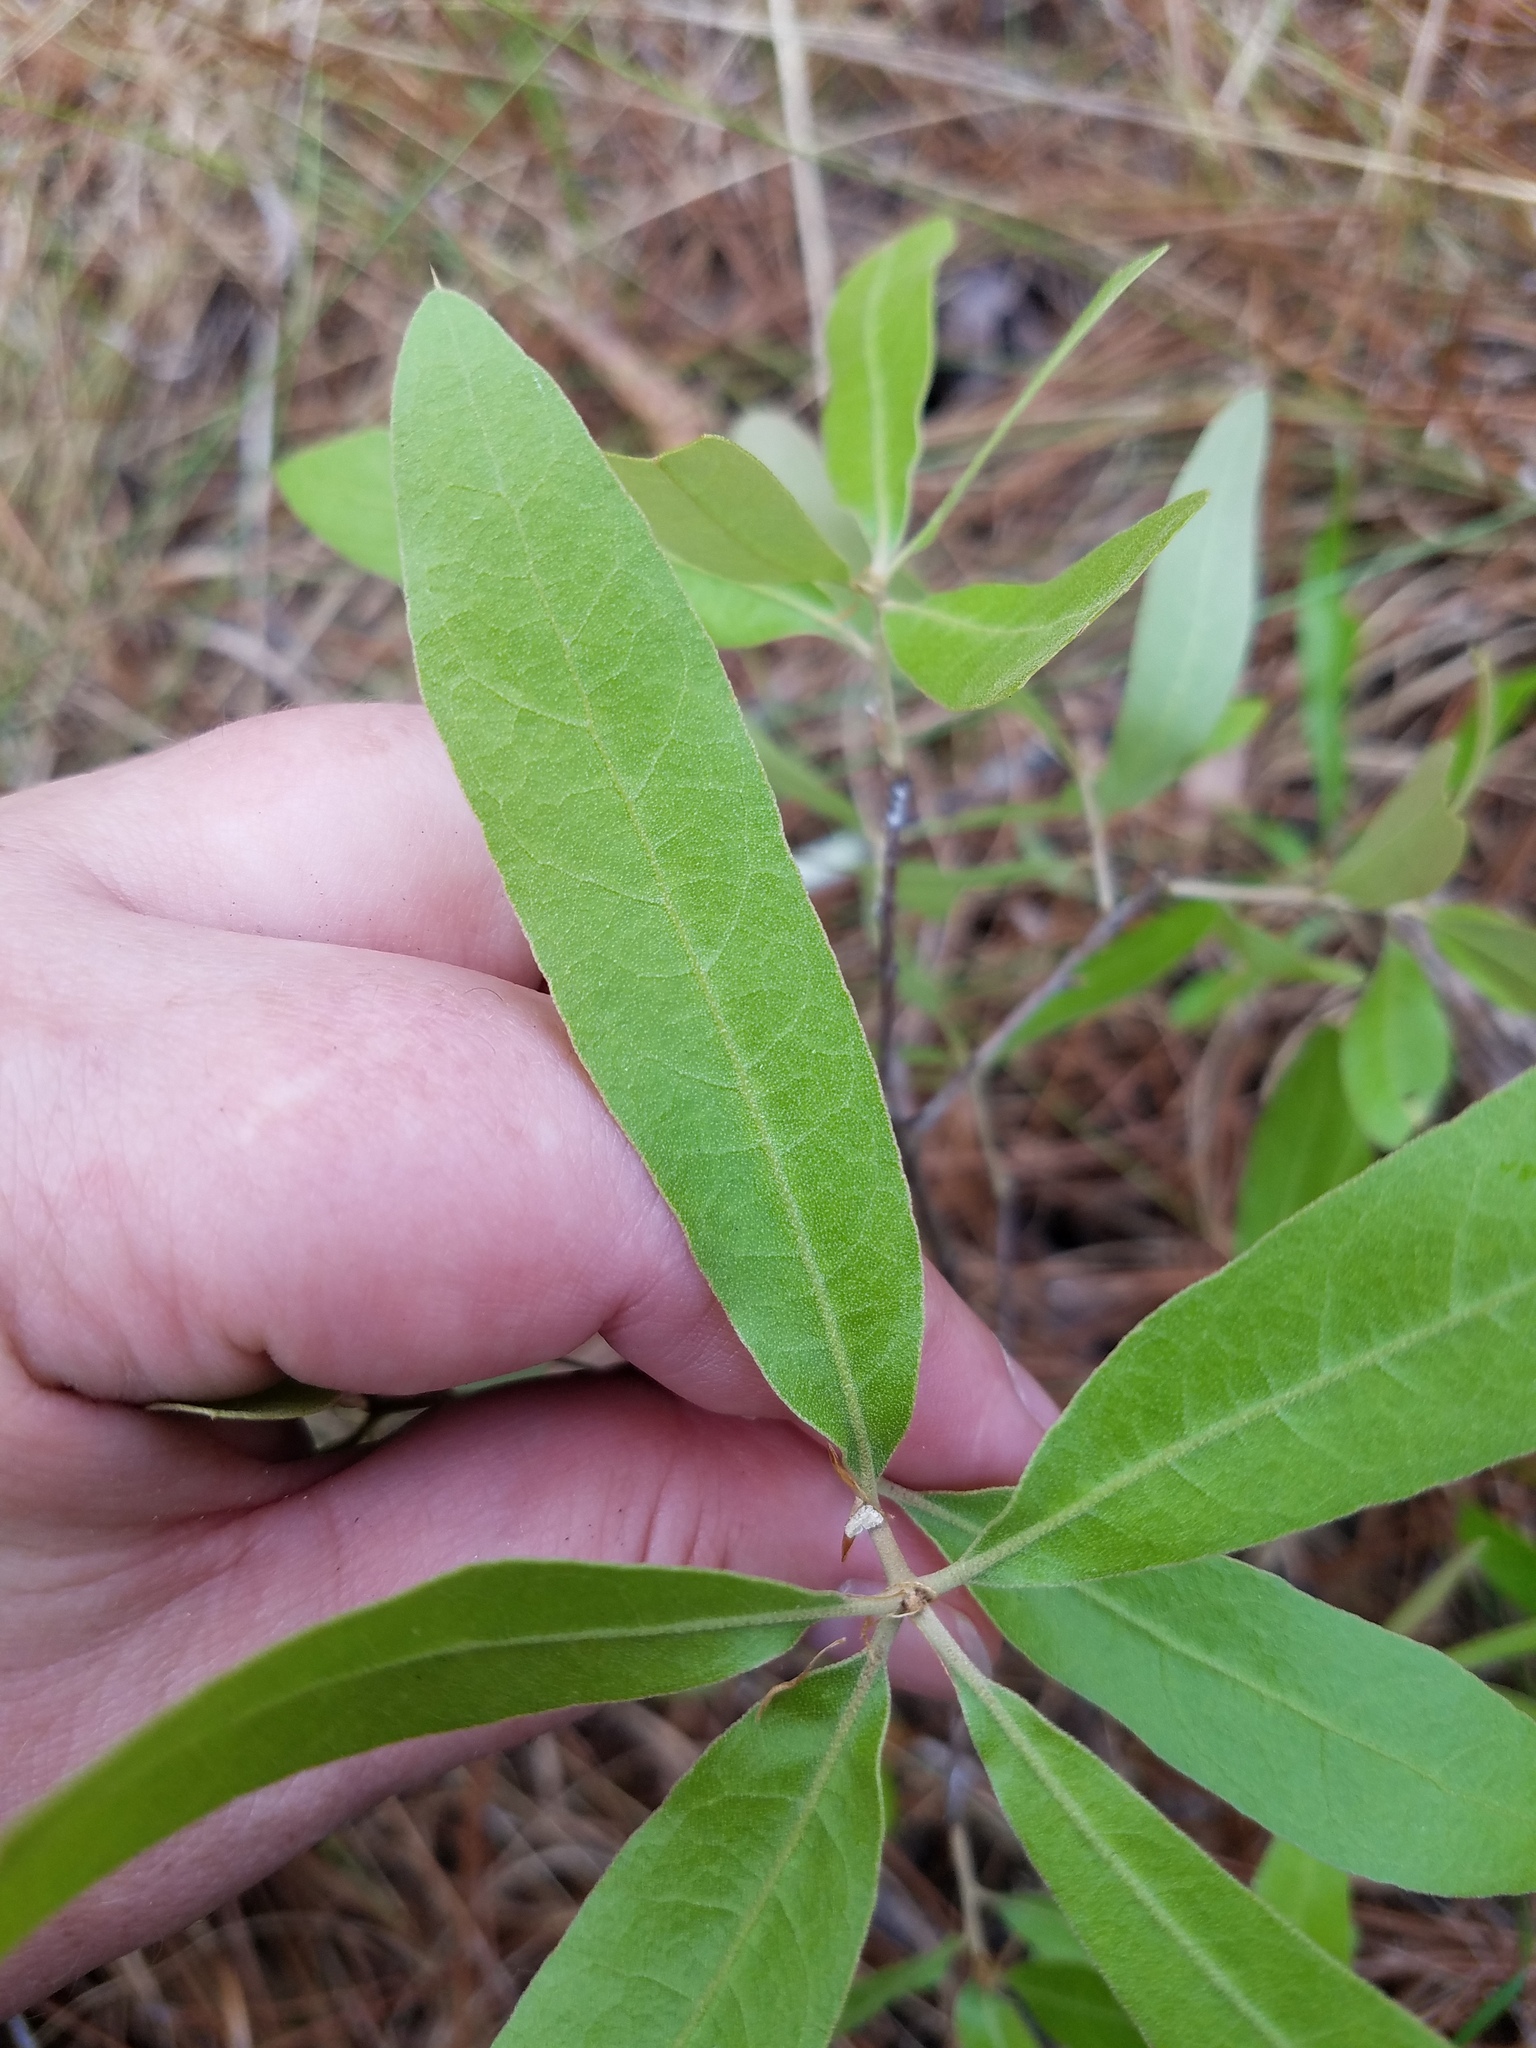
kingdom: Plantae
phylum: Tracheophyta
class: Magnoliopsida
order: Fagales
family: Fagaceae
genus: Quercus
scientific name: Quercus incana
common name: Bluejack oak
